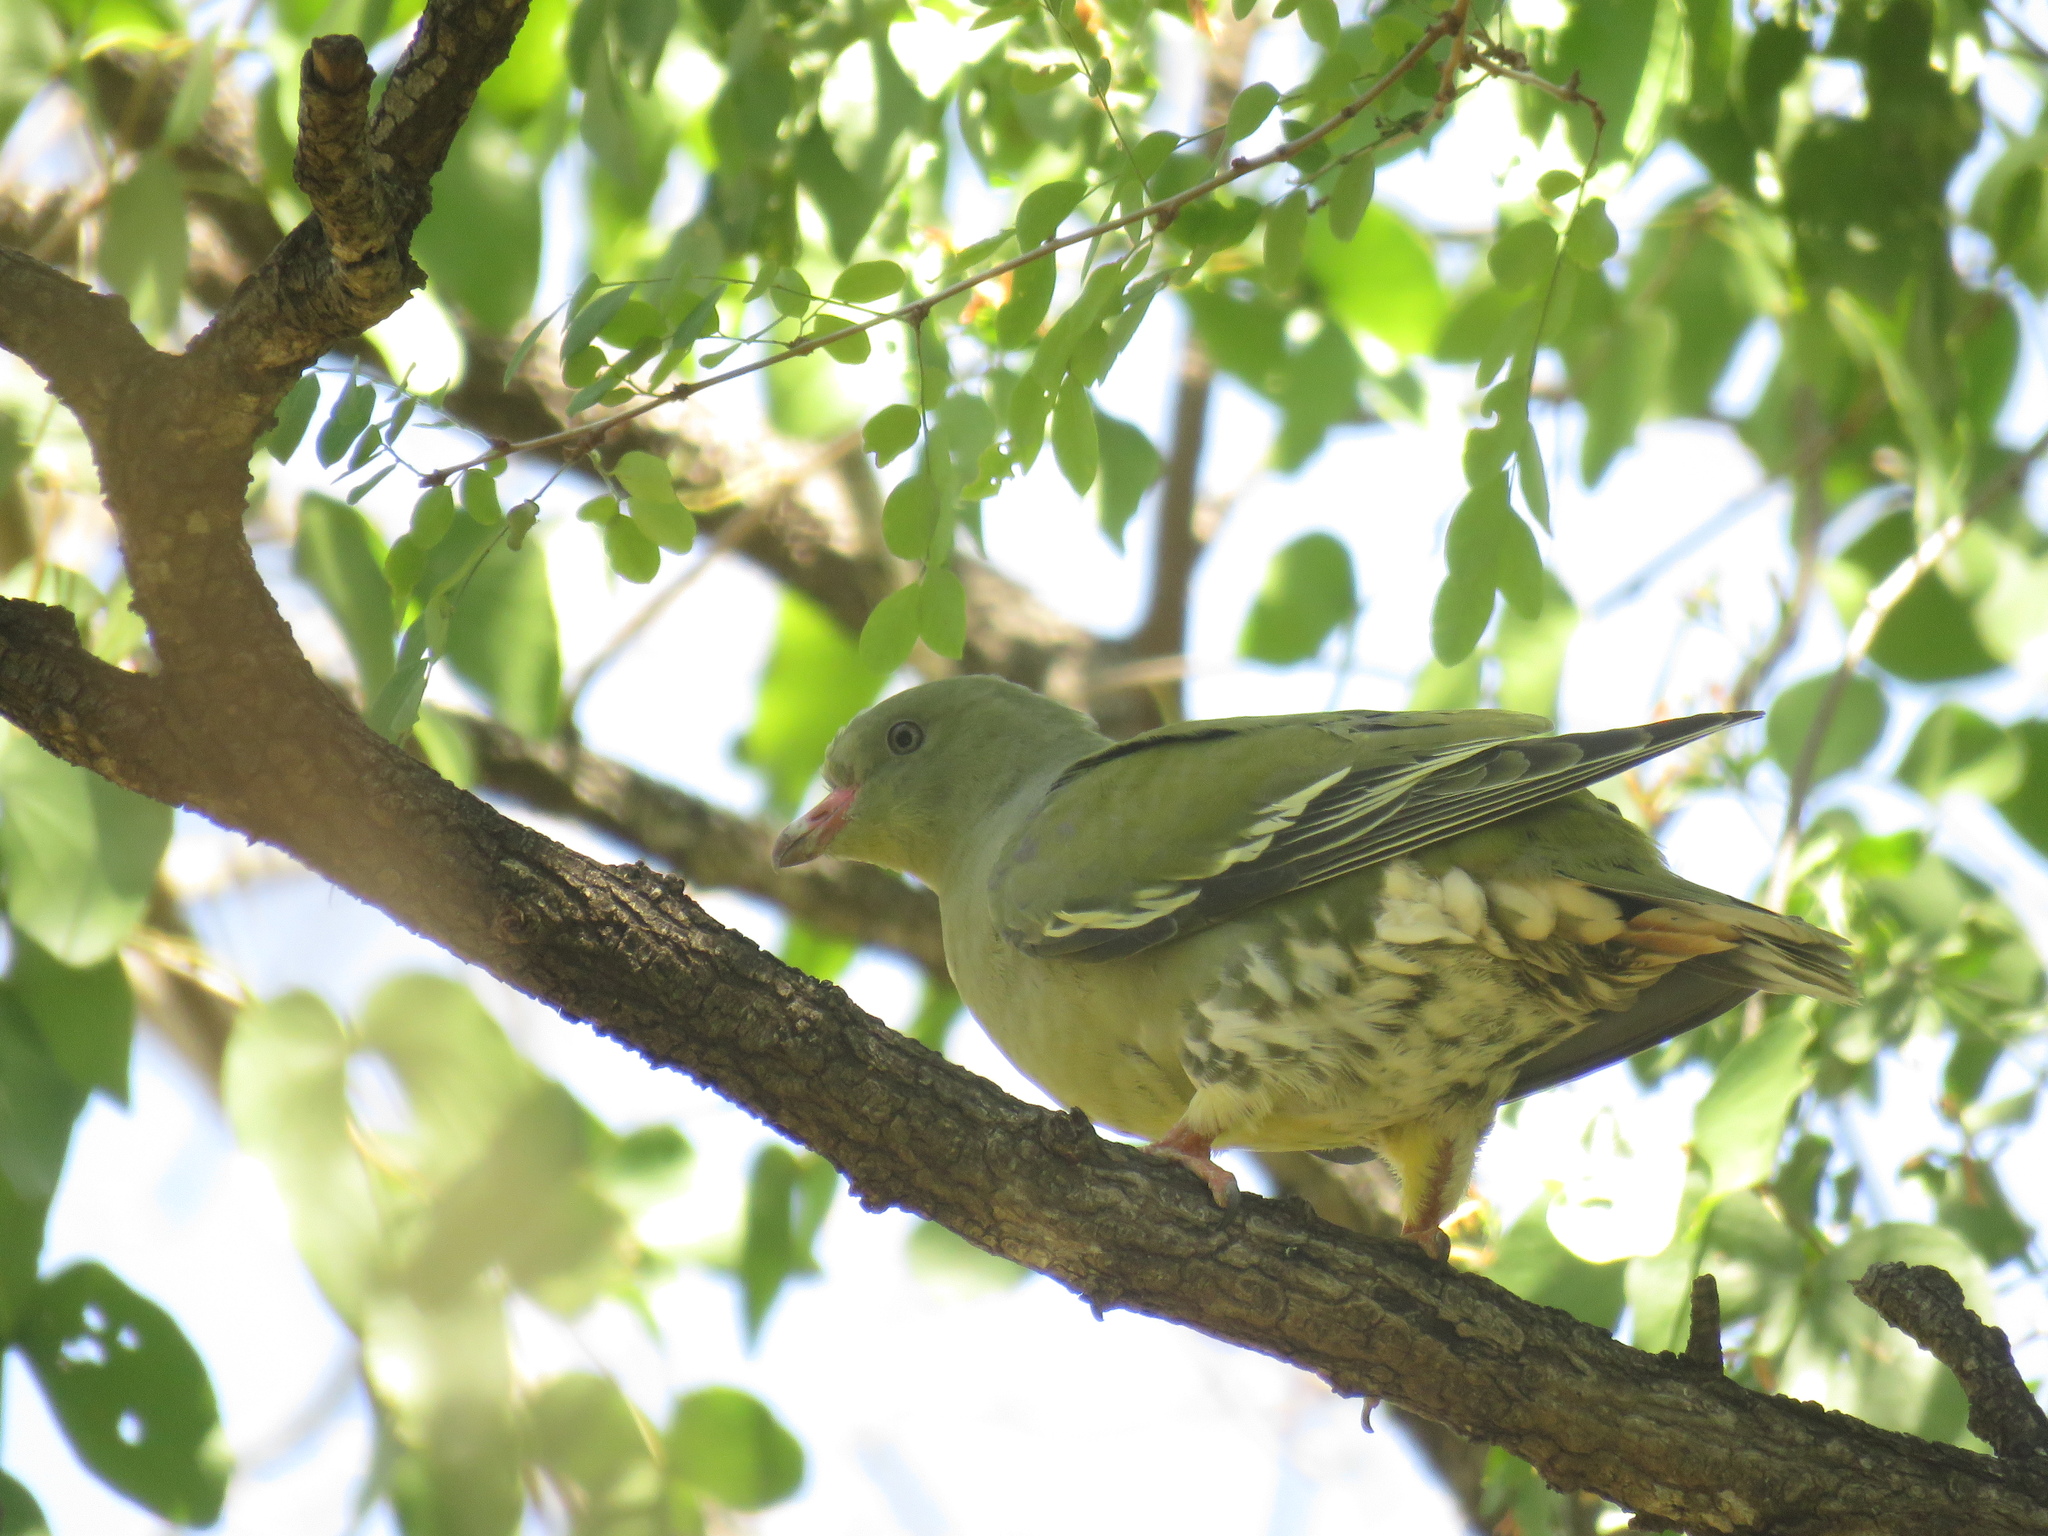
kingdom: Animalia
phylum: Chordata
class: Aves
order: Columbiformes
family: Columbidae
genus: Treron
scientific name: Treron calvus
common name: African green pigeon
